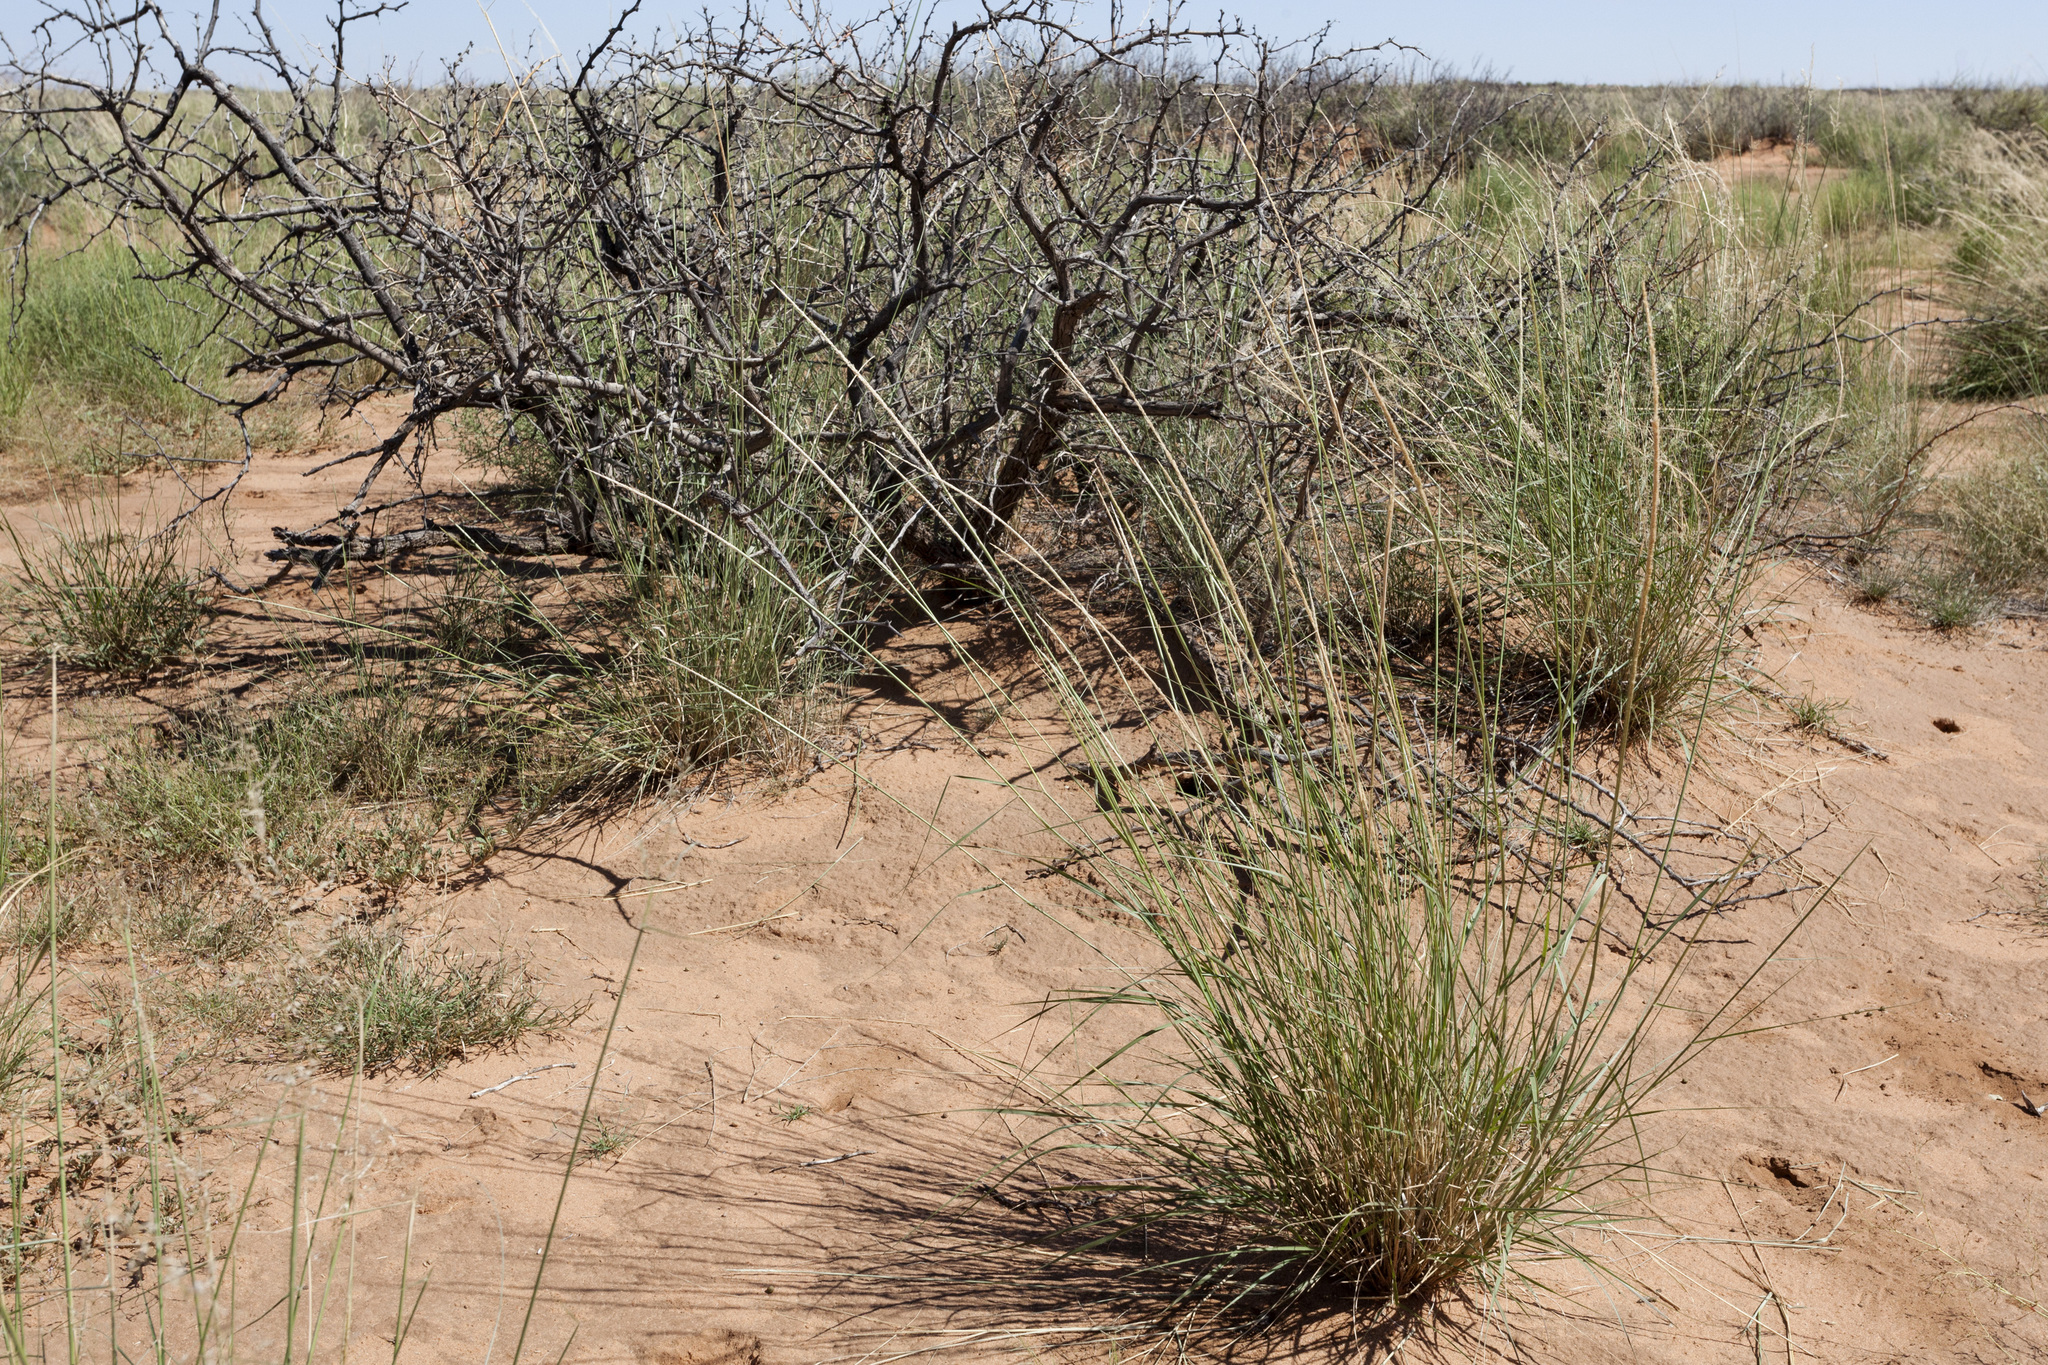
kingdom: Plantae
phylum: Tracheophyta
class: Liliopsida
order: Poales
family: Poaceae
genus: Sporobolus
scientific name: Sporobolus contractus
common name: Spike dropseed
